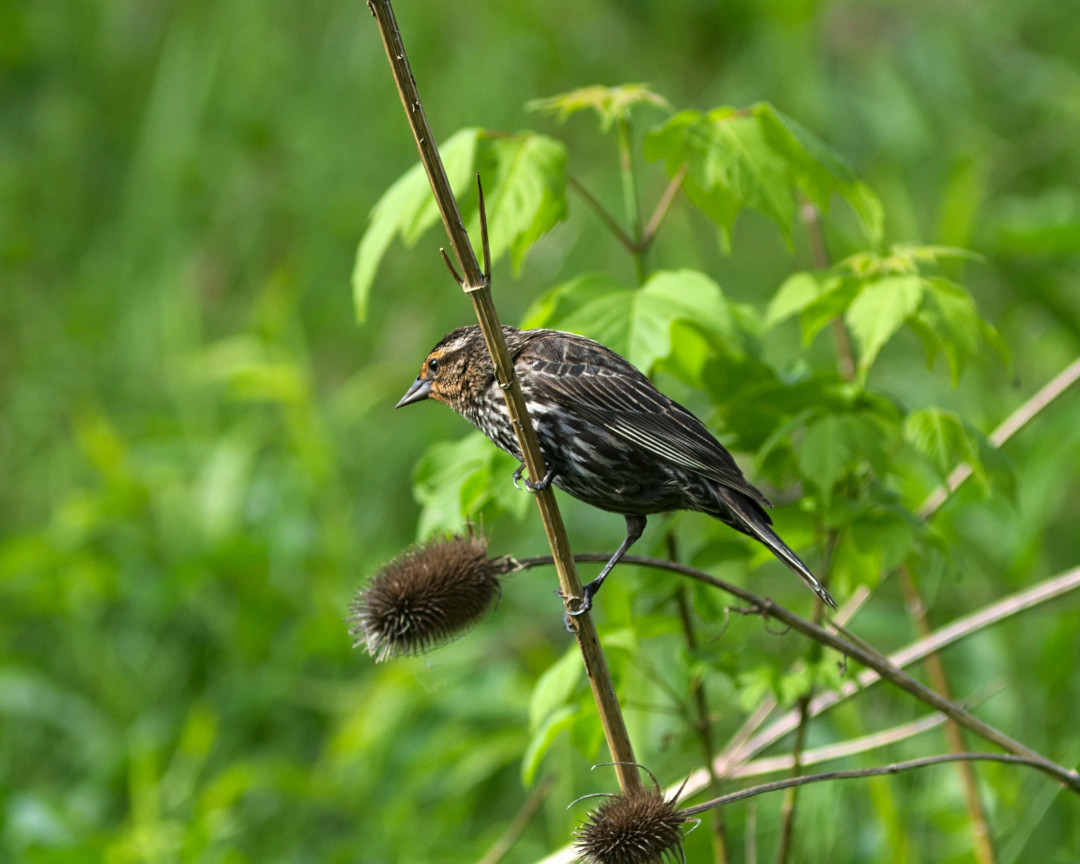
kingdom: Animalia
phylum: Chordata
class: Aves
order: Passeriformes
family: Icteridae
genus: Agelaius
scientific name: Agelaius phoeniceus
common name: Red-winged blackbird
